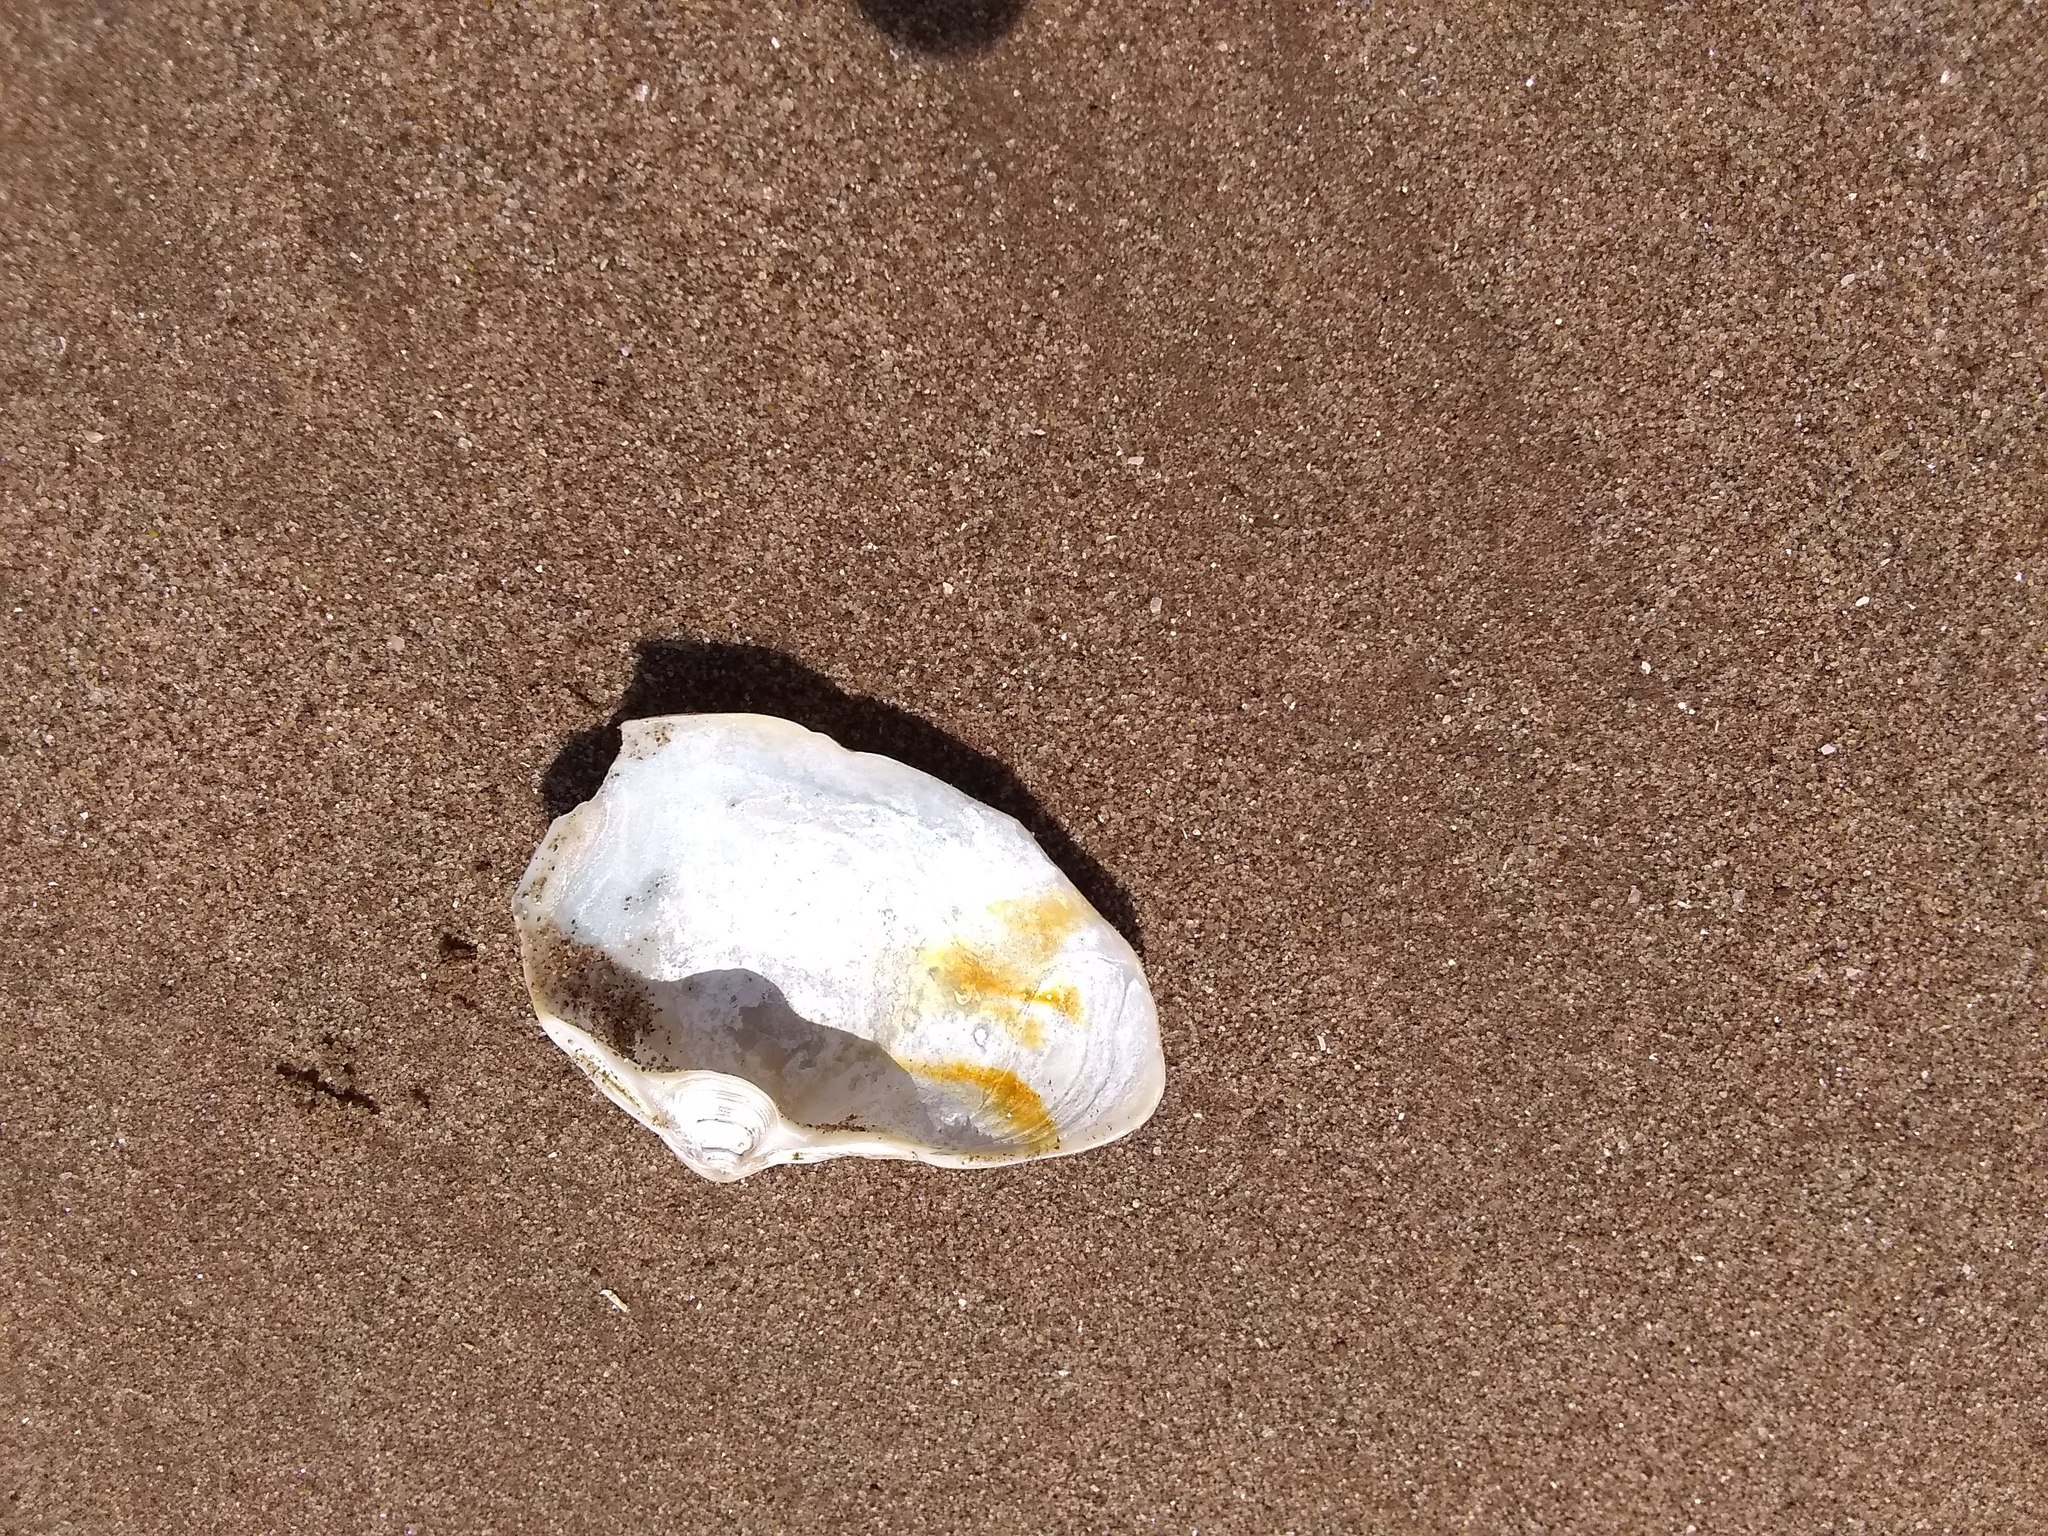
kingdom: Animalia
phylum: Mollusca
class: Bivalvia
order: Venerida
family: Mactridae
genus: Spisula
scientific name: Spisula solidissima
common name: Atlantic surf clam
